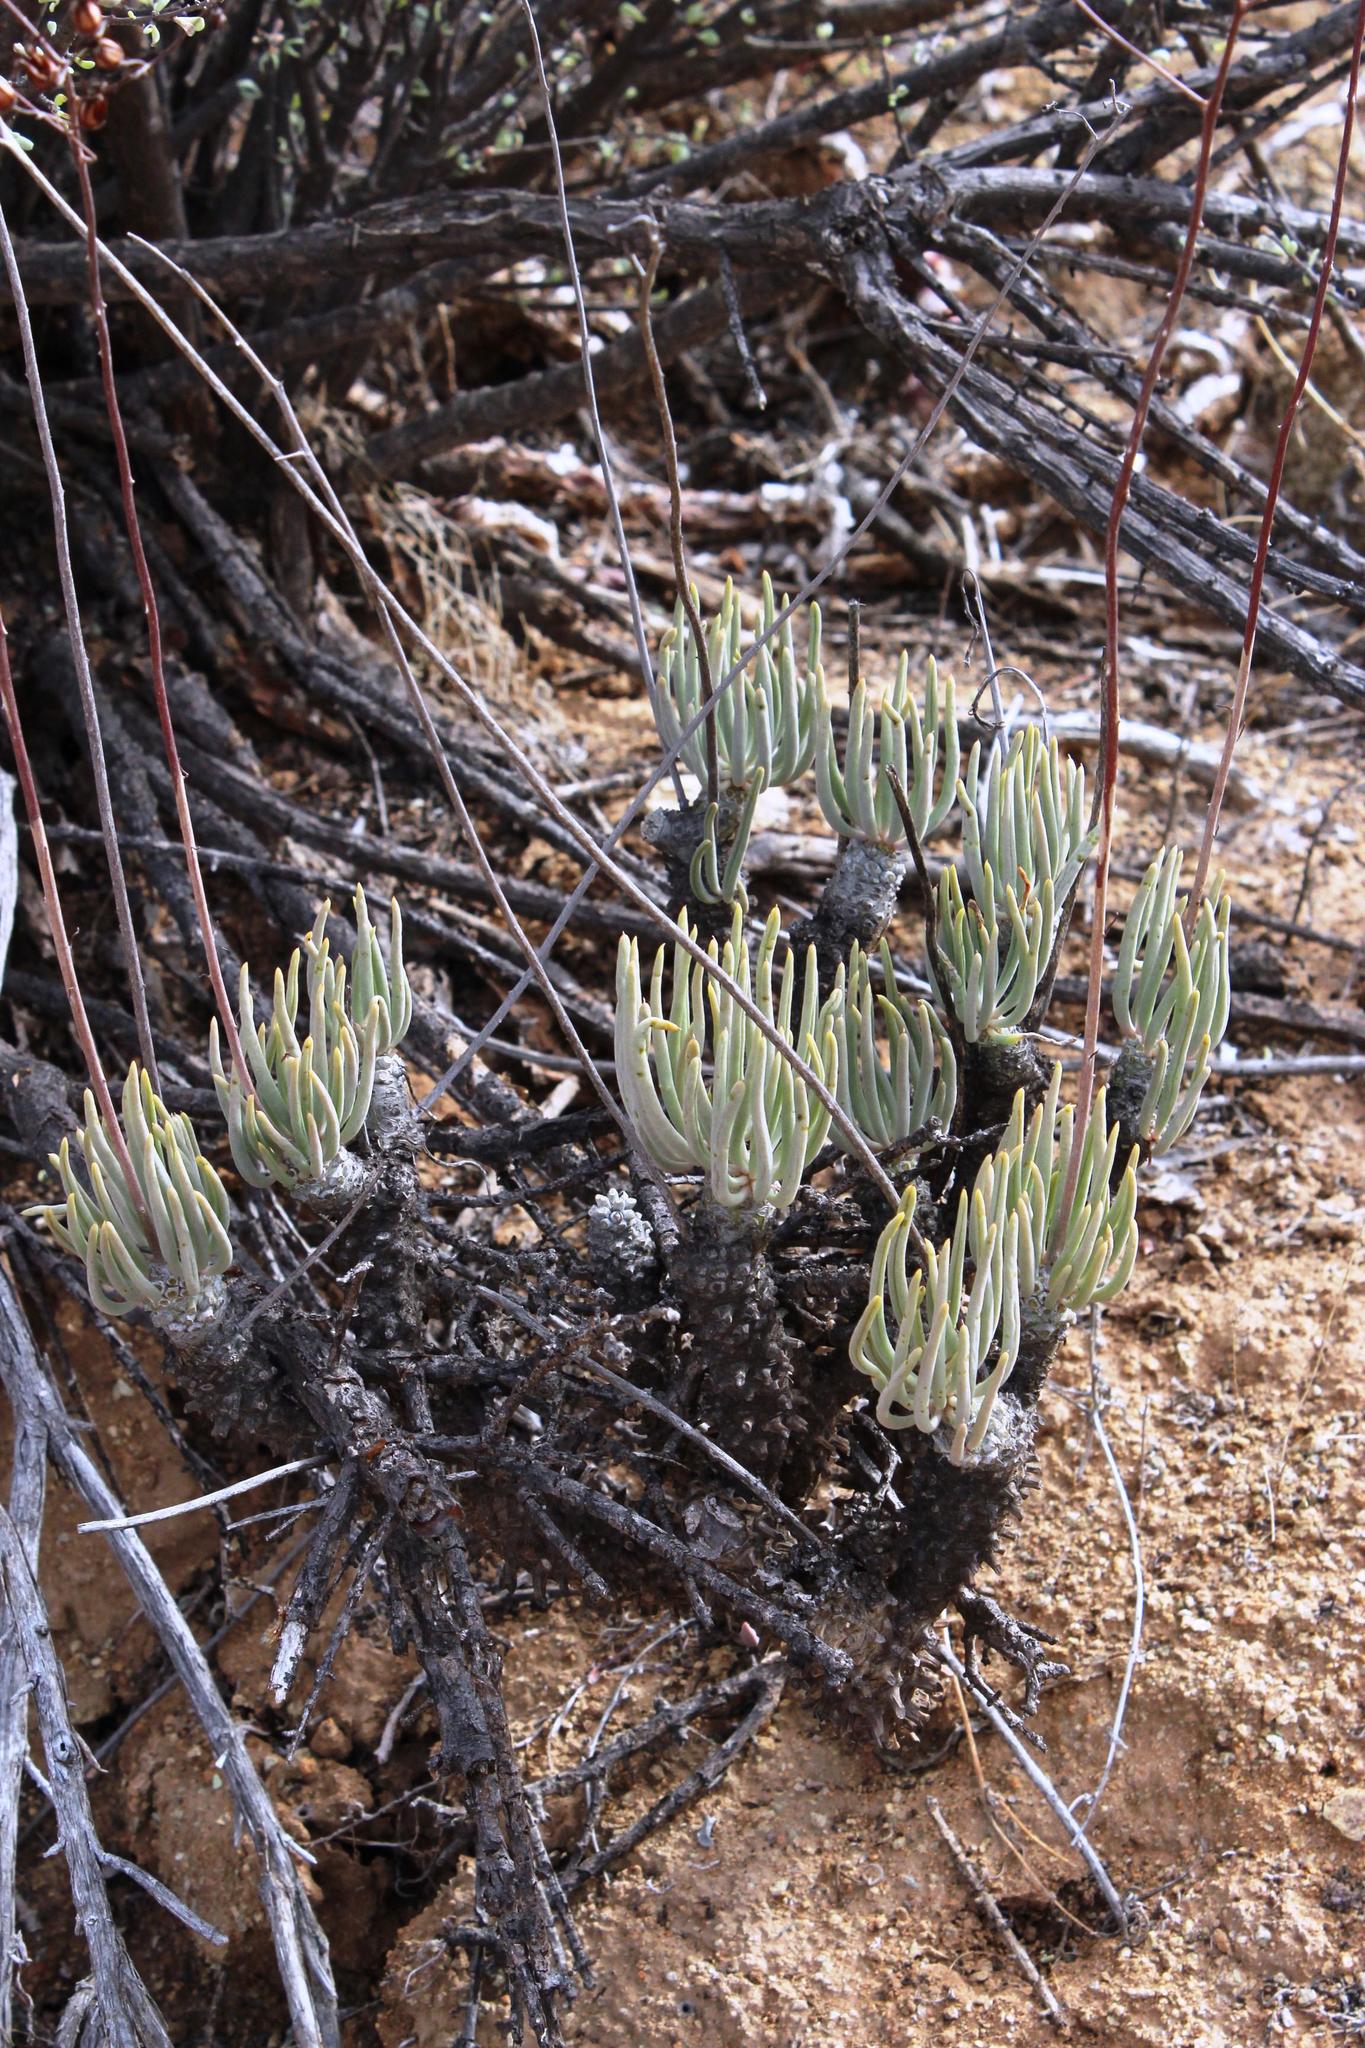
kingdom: Plantae
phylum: Tracheophyta
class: Magnoliopsida
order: Saxifragales
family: Crassulaceae
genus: Tylecodon
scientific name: Tylecodon wallichii
